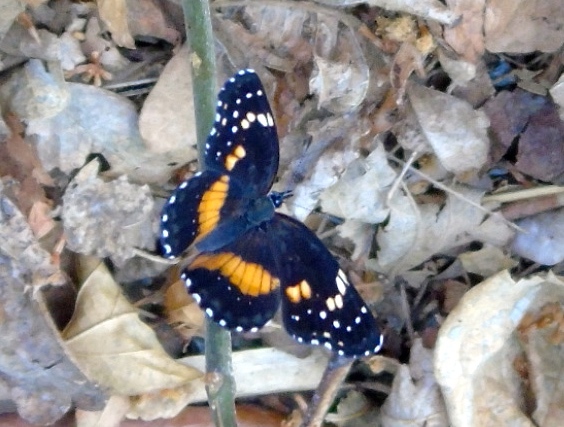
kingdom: Animalia
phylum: Arthropoda
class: Insecta
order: Lepidoptera
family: Nymphalidae
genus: Chlosyne
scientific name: Chlosyne lacinia
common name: Bordered patch
